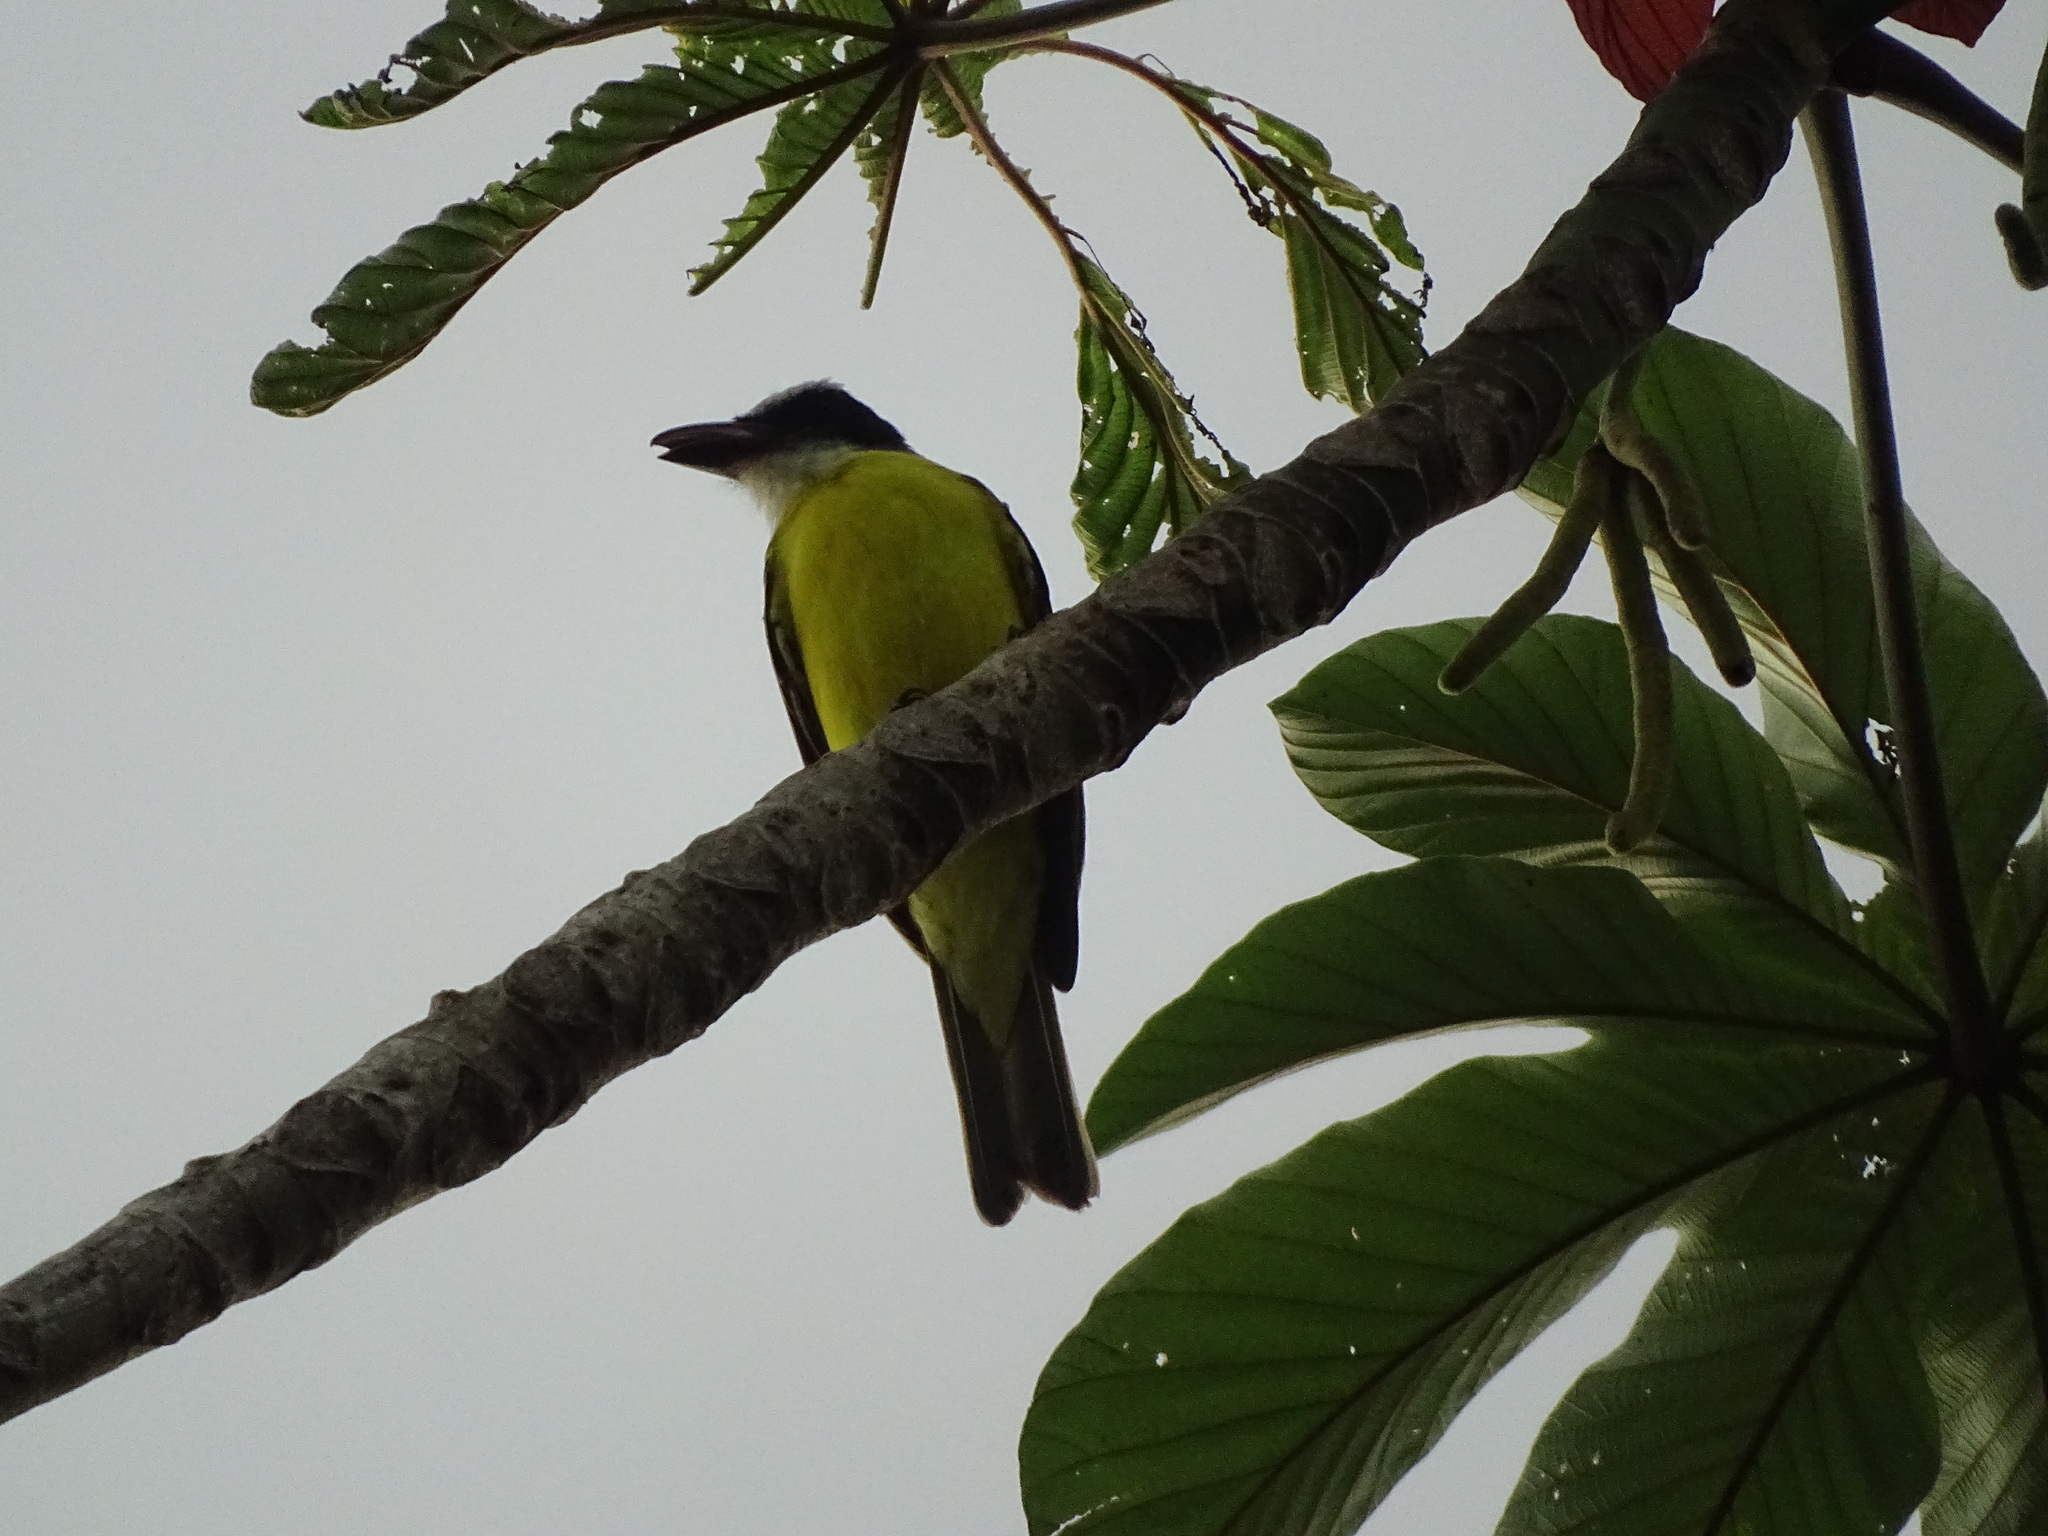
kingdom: Animalia
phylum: Chordata
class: Aves
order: Passeriformes
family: Tyrannidae
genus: Megarynchus
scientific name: Megarynchus pitangua
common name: Boat-billed flycatcher
